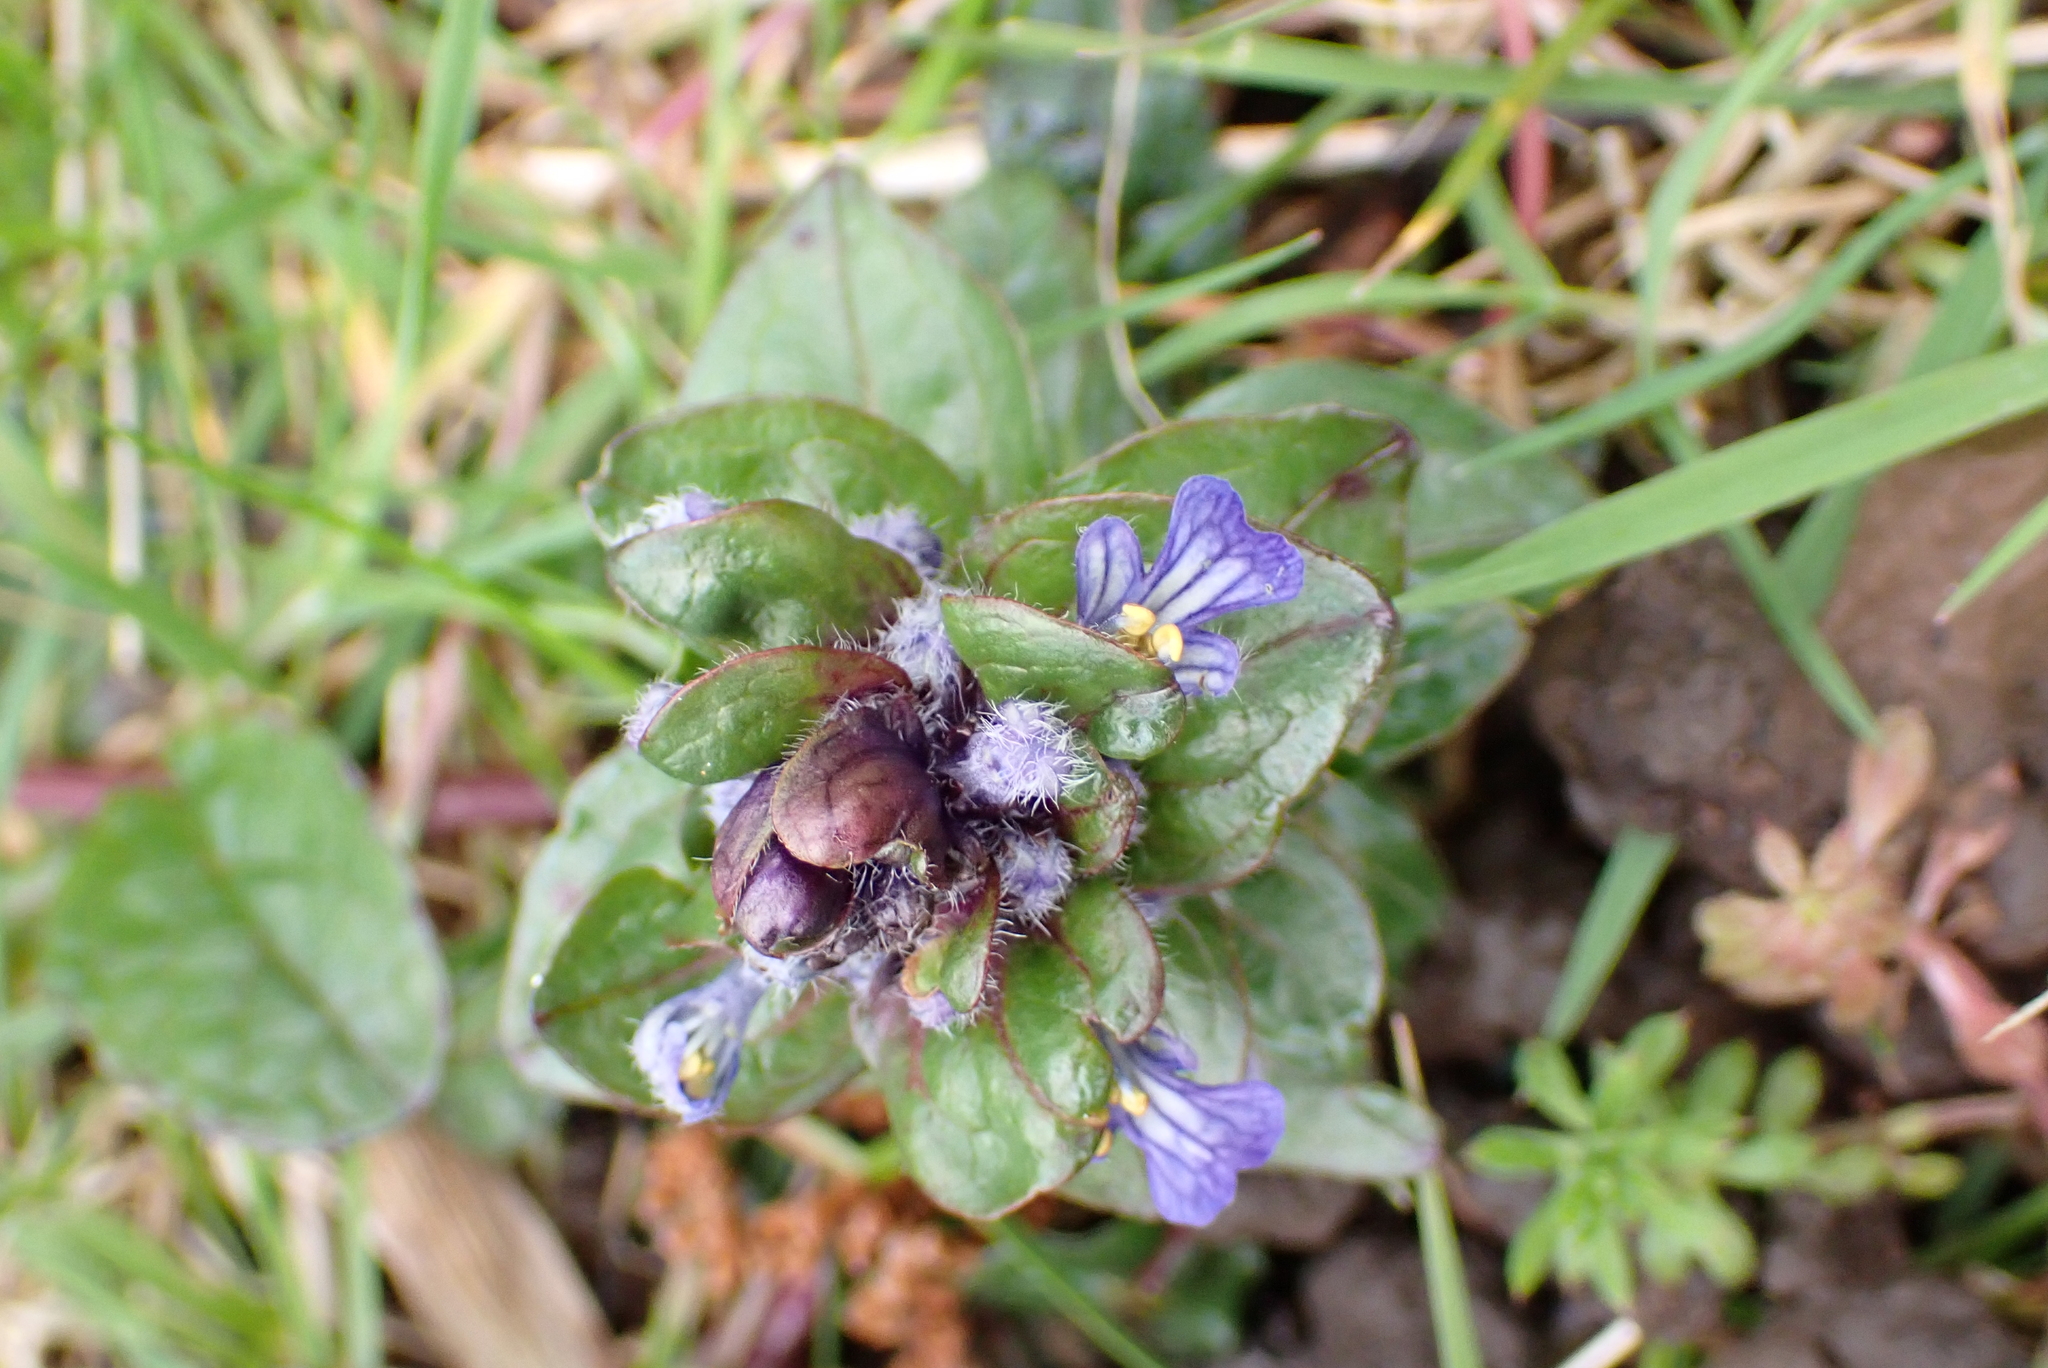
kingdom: Plantae
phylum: Tracheophyta
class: Magnoliopsida
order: Lamiales
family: Lamiaceae
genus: Ajuga
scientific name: Ajuga reptans
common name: Bugle
